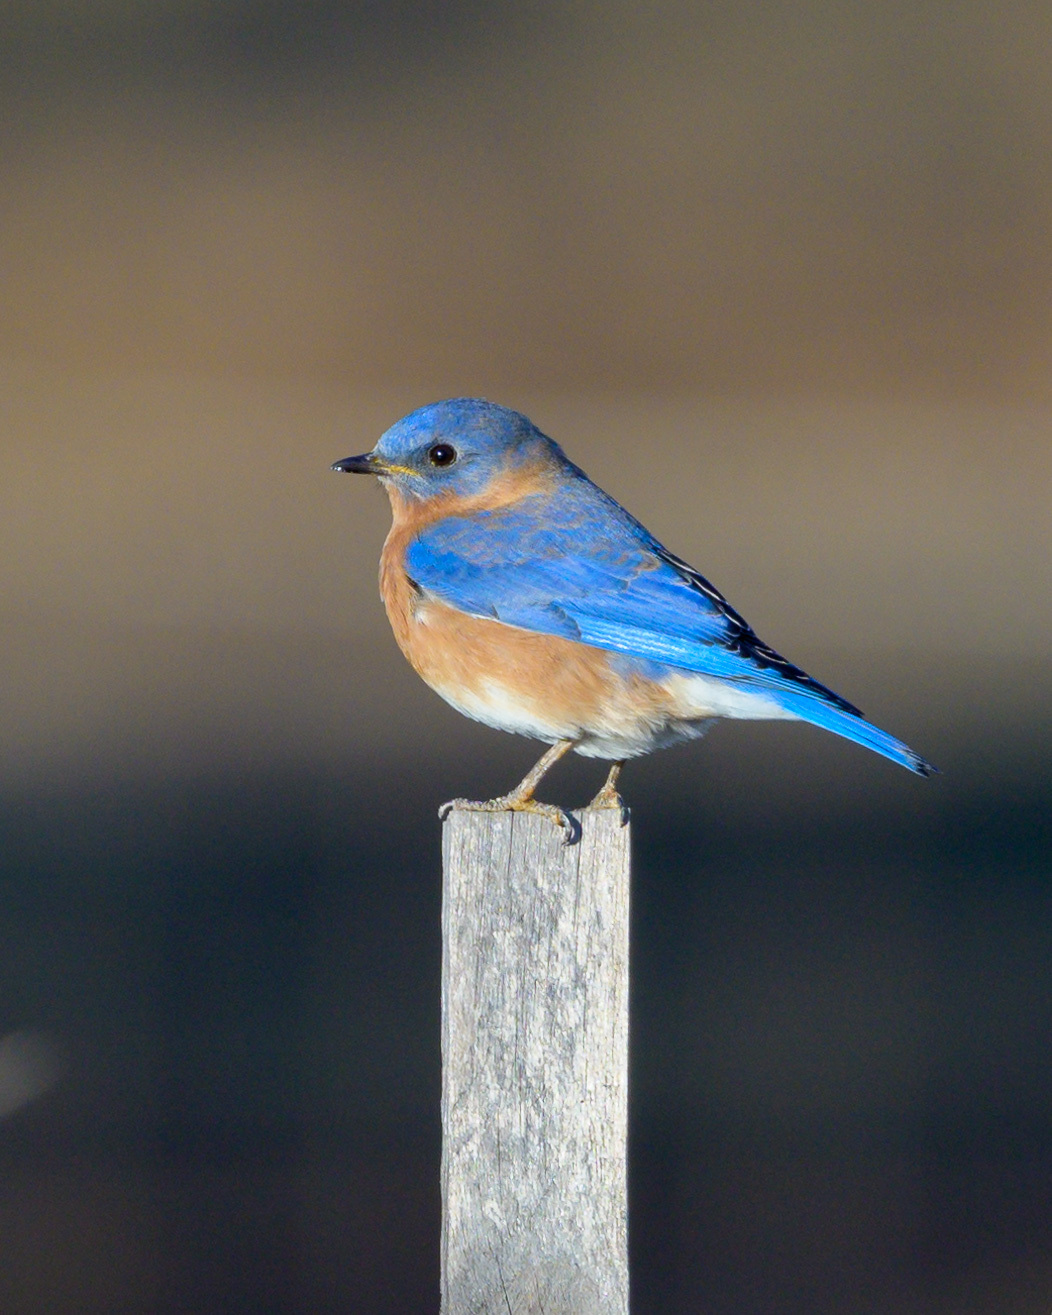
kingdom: Animalia
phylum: Chordata
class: Aves
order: Passeriformes
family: Turdidae
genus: Sialia
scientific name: Sialia sialis
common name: Eastern bluebird
